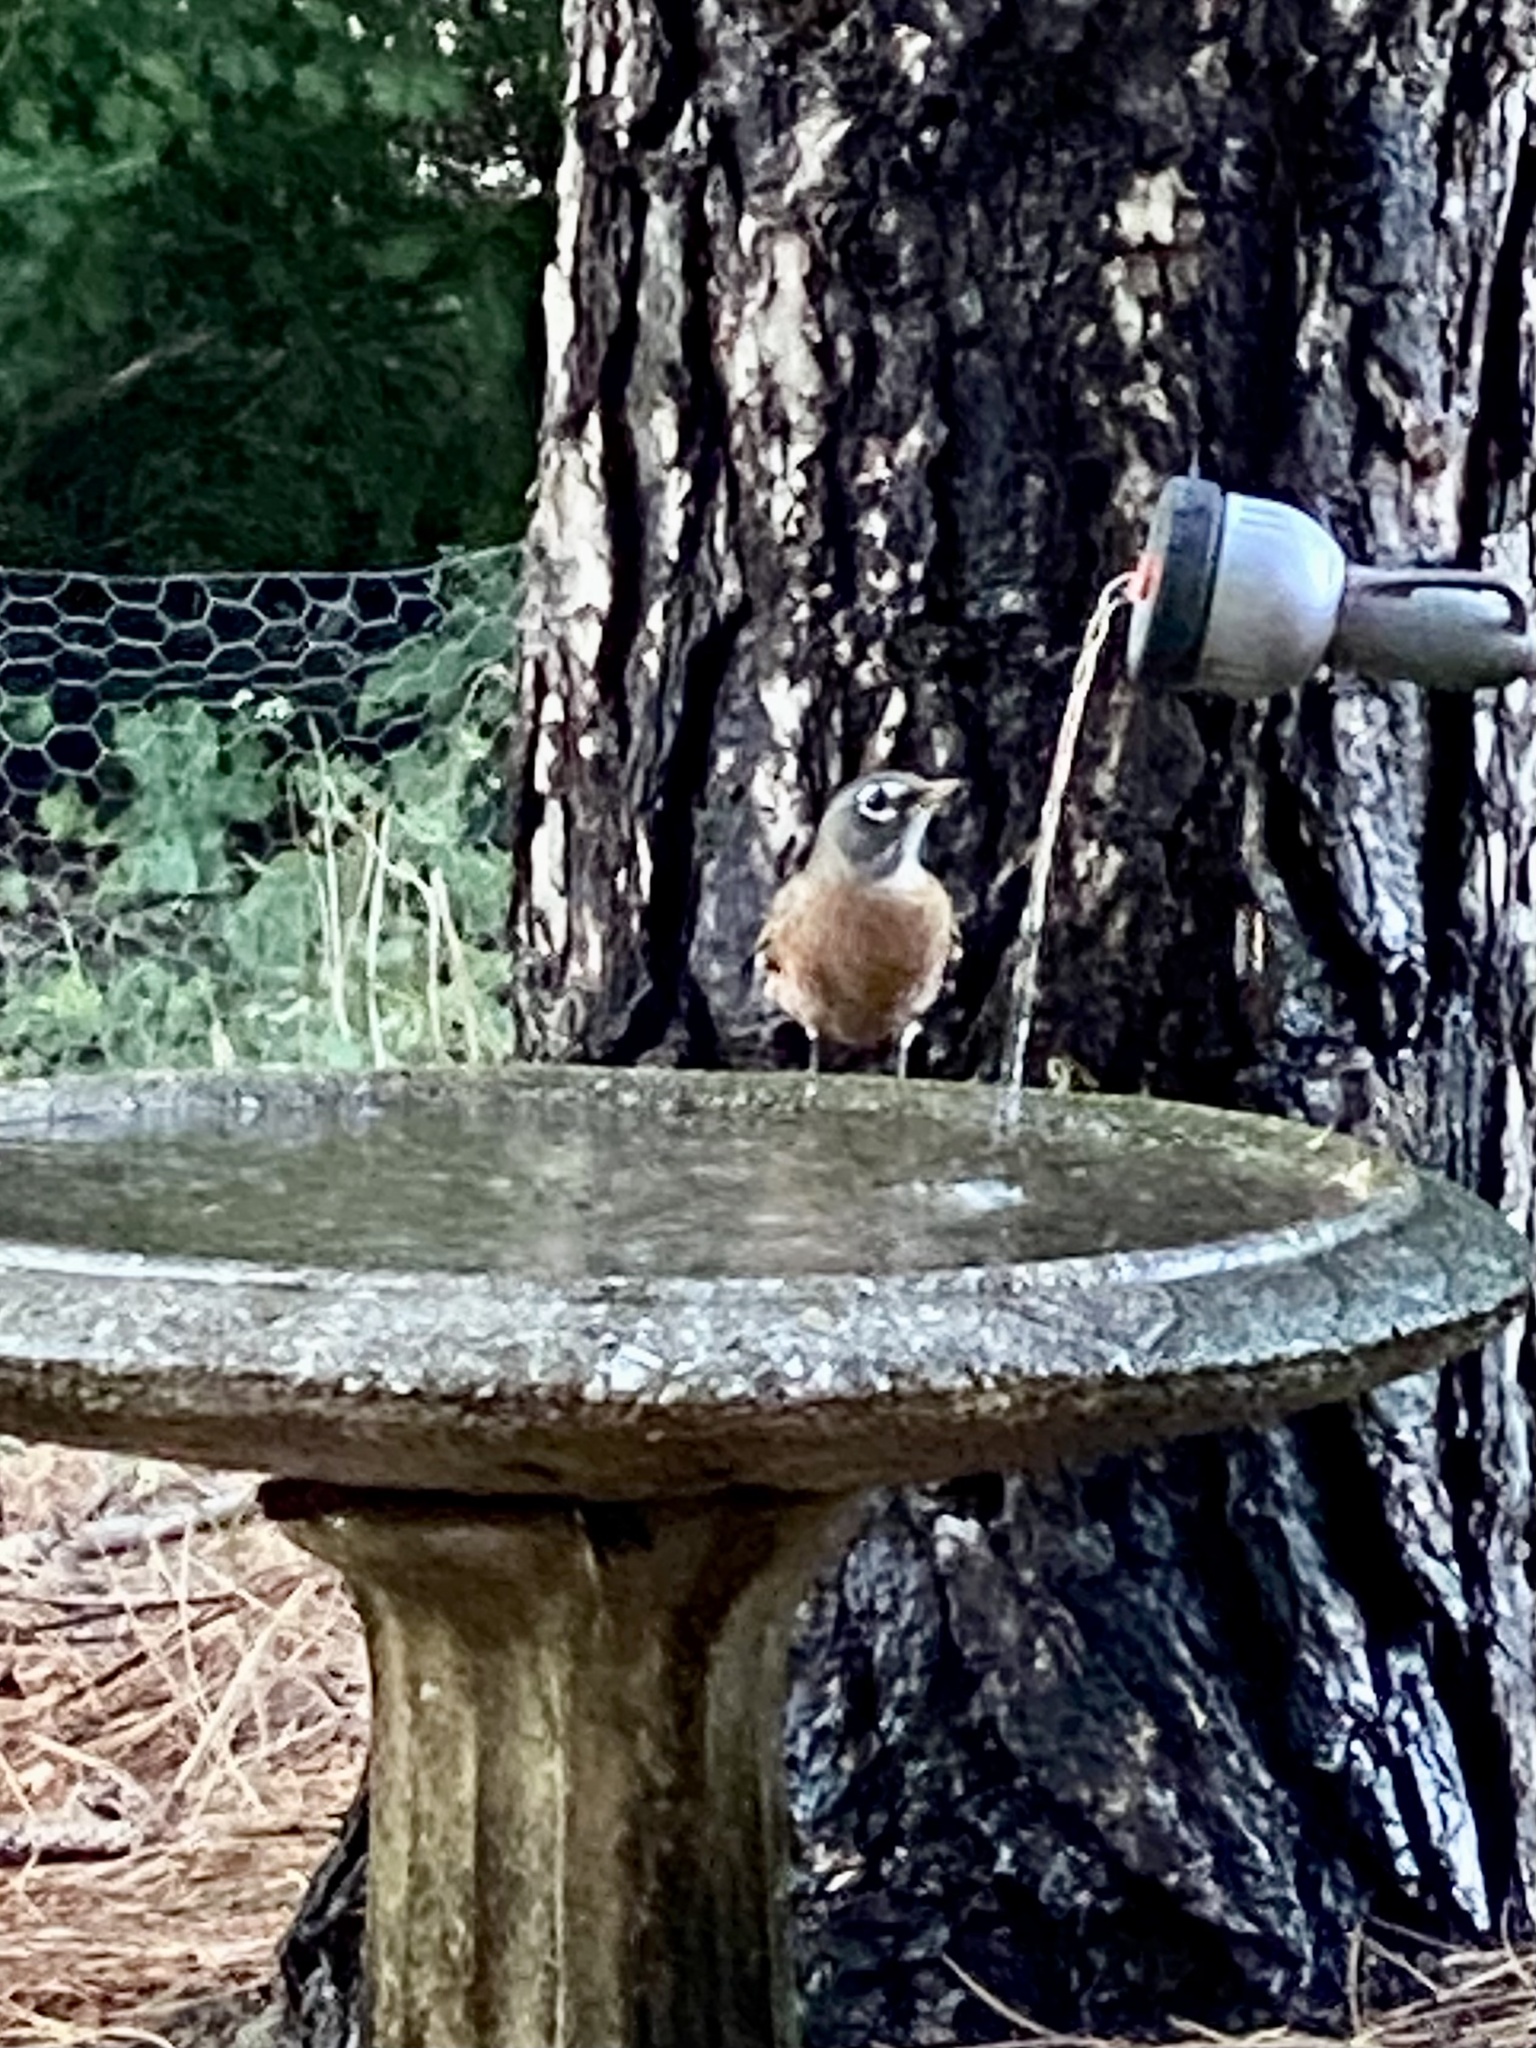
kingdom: Animalia
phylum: Chordata
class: Aves
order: Passeriformes
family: Turdidae
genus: Turdus
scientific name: Turdus migratorius
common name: American robin
